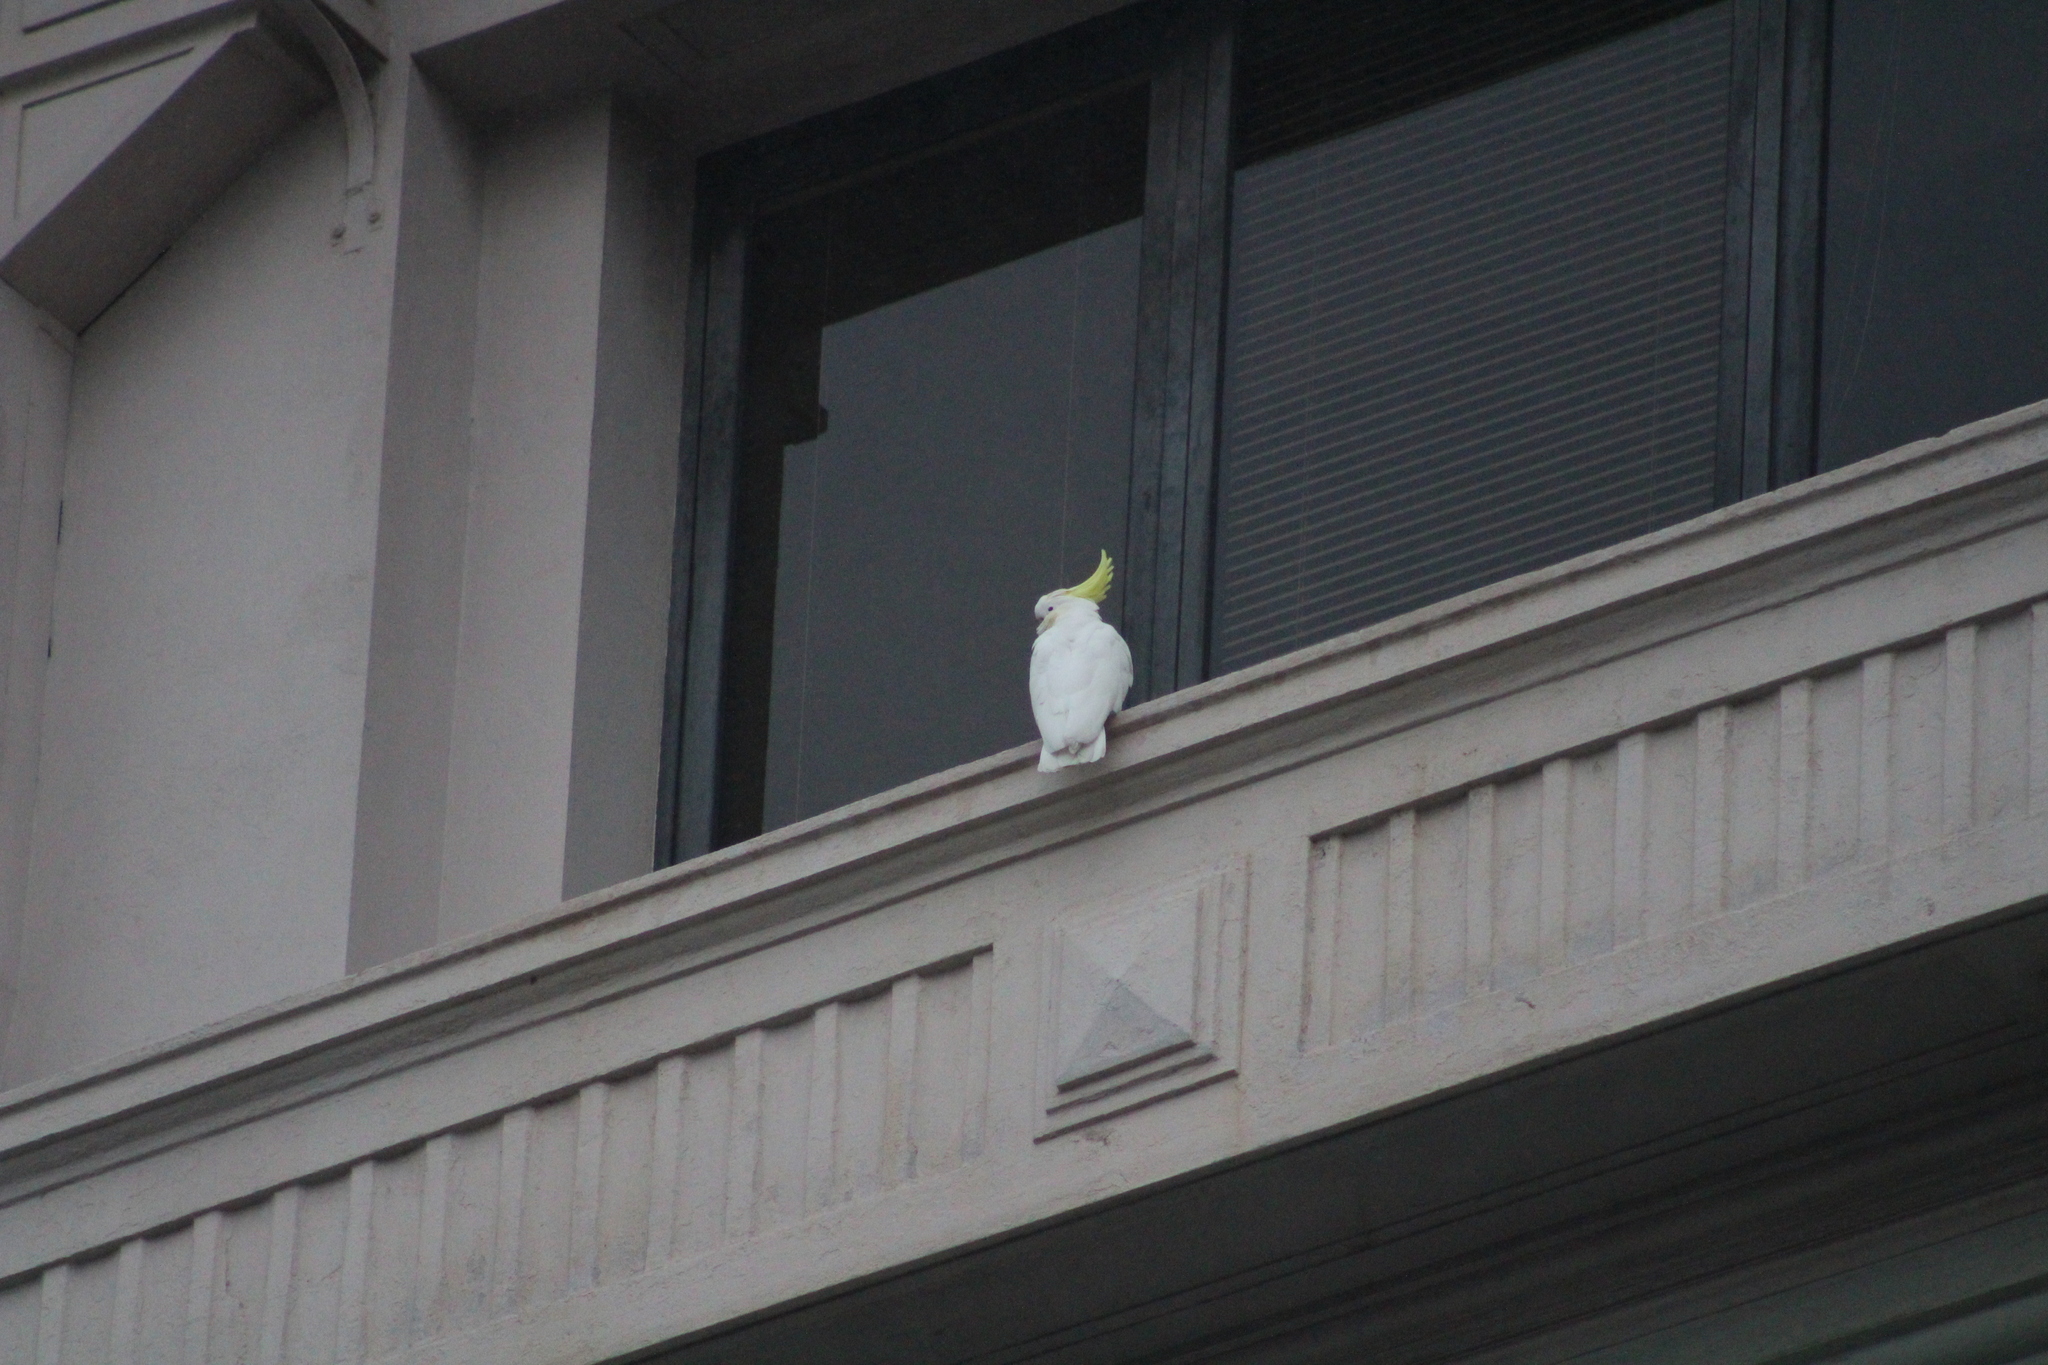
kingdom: Animalia
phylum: Chordata
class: Aves
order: Psittaciformes
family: Psittacidae
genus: Cacatua
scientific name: Cacatua galerita
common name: Sulphur-crested cockatoo
